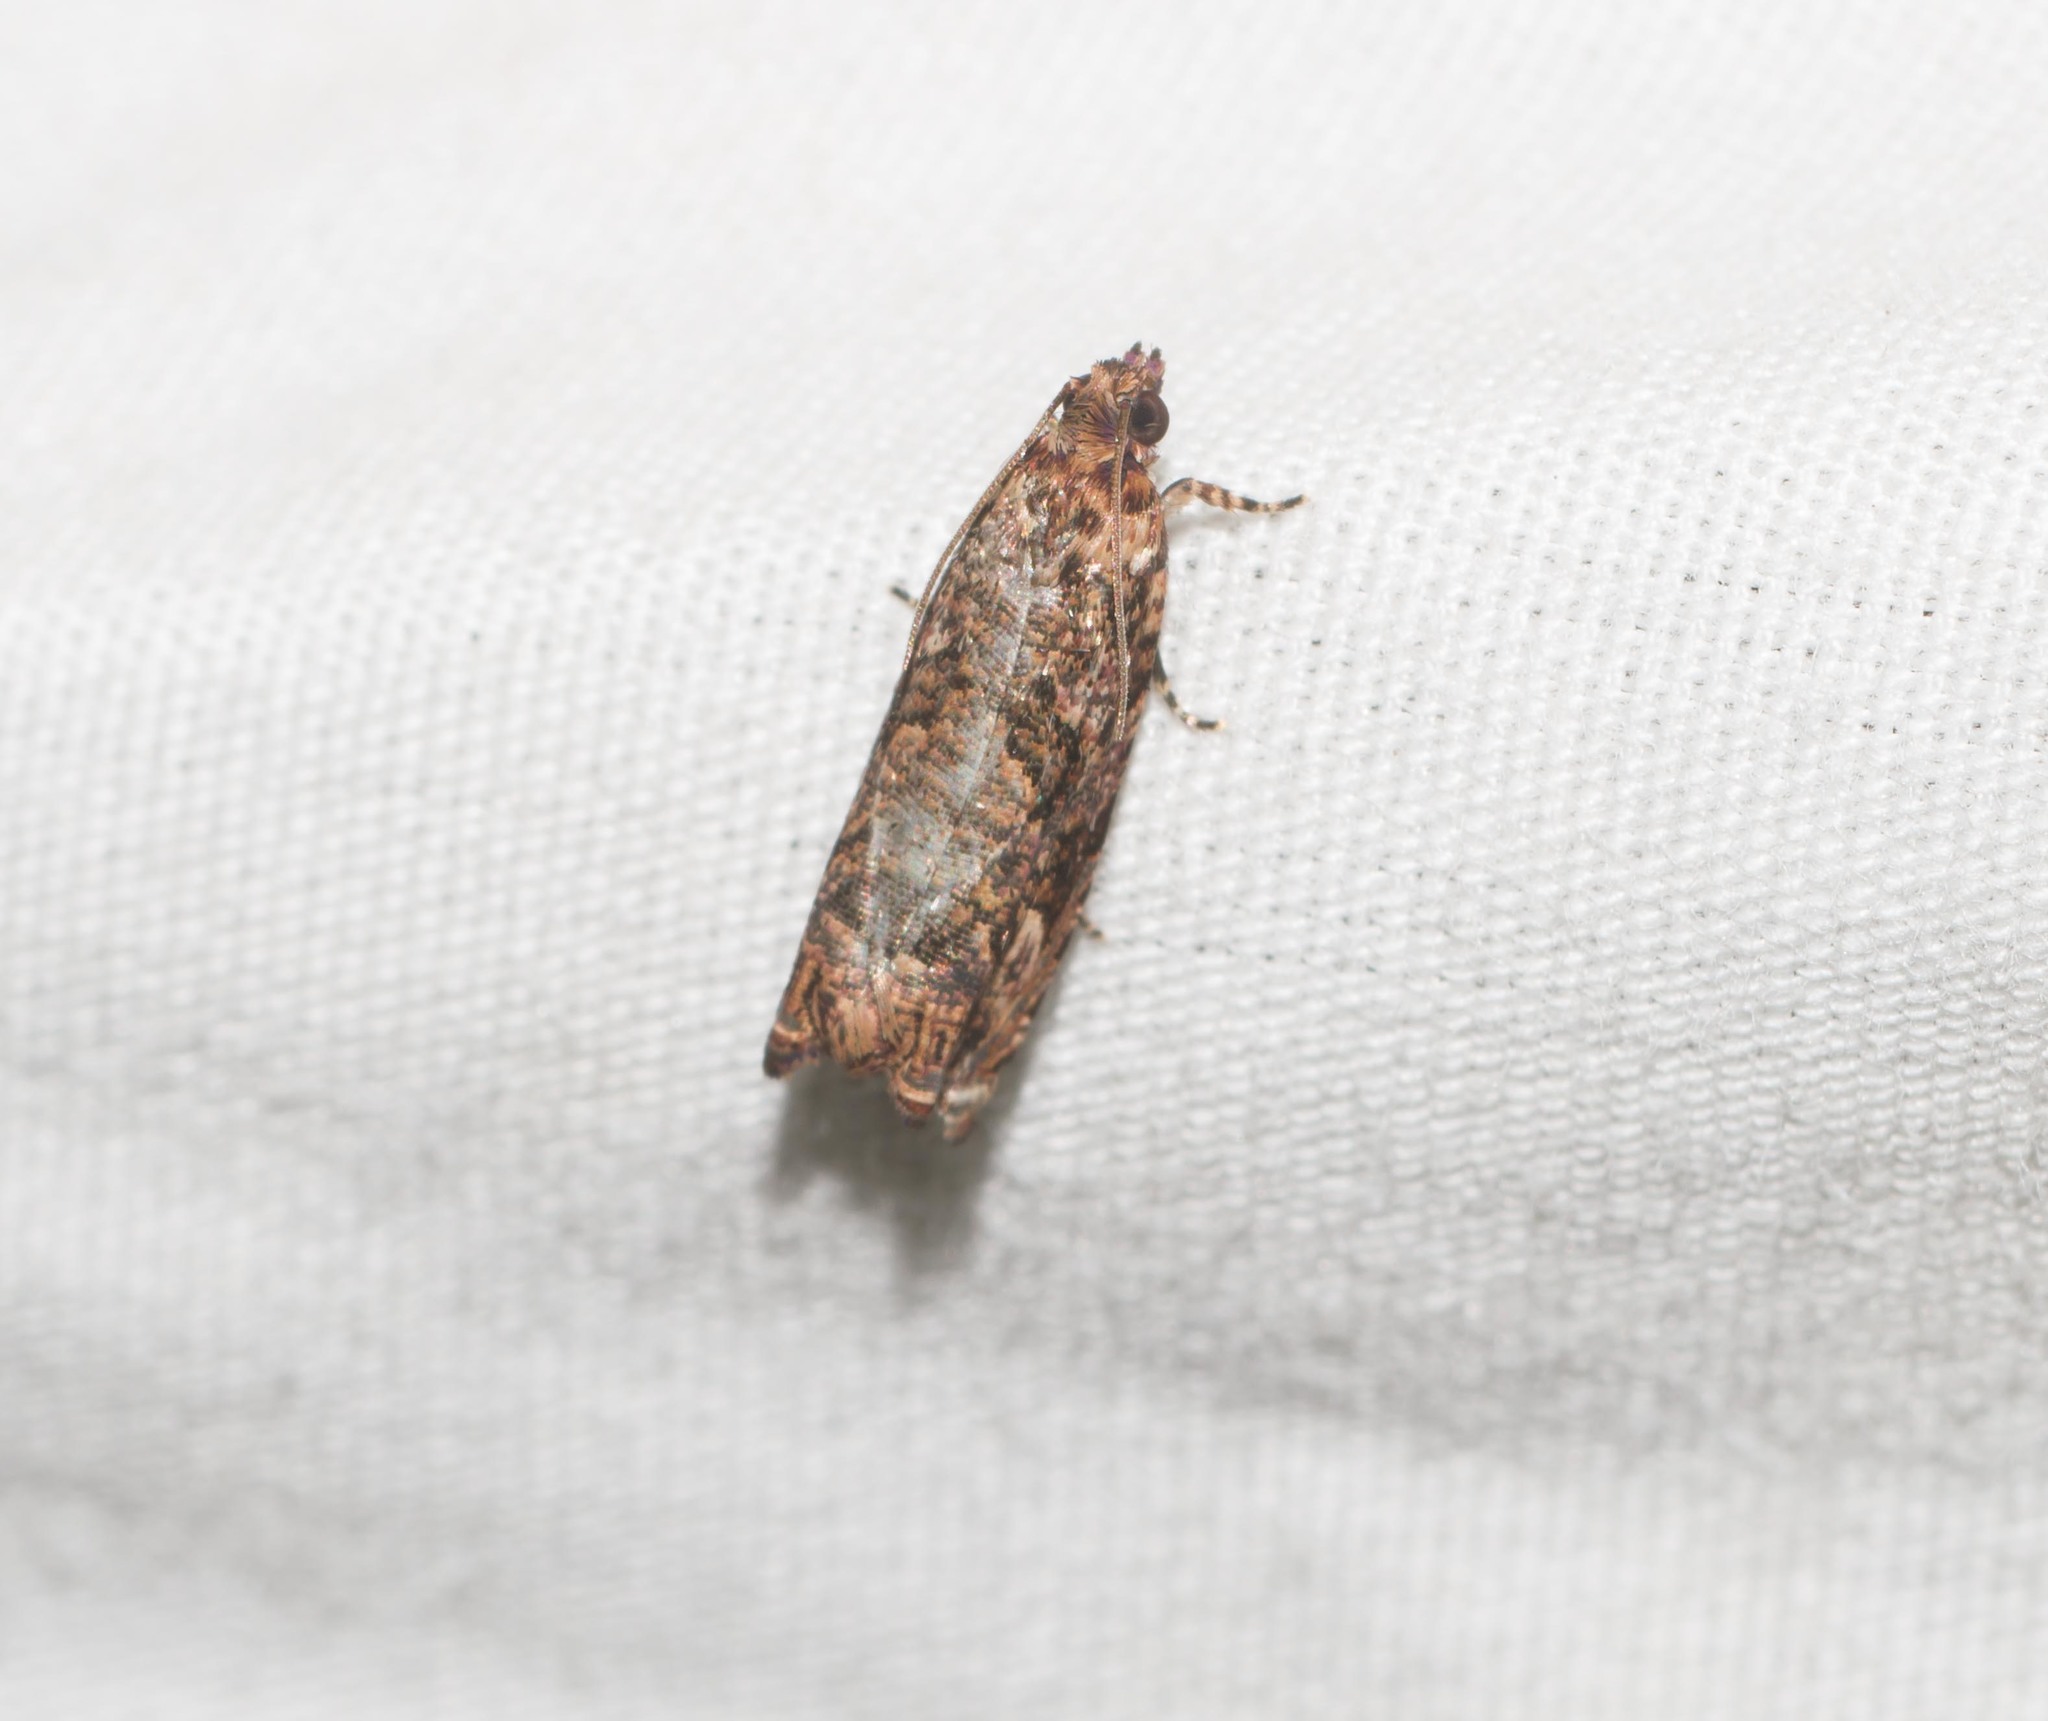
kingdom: Animalia
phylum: Arthropoda
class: Insecta
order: Lepidoptera
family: Tortricidae
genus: Episimus
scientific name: Episimus unguiculus
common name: Brazilian peppertree leaflet rolling moth
